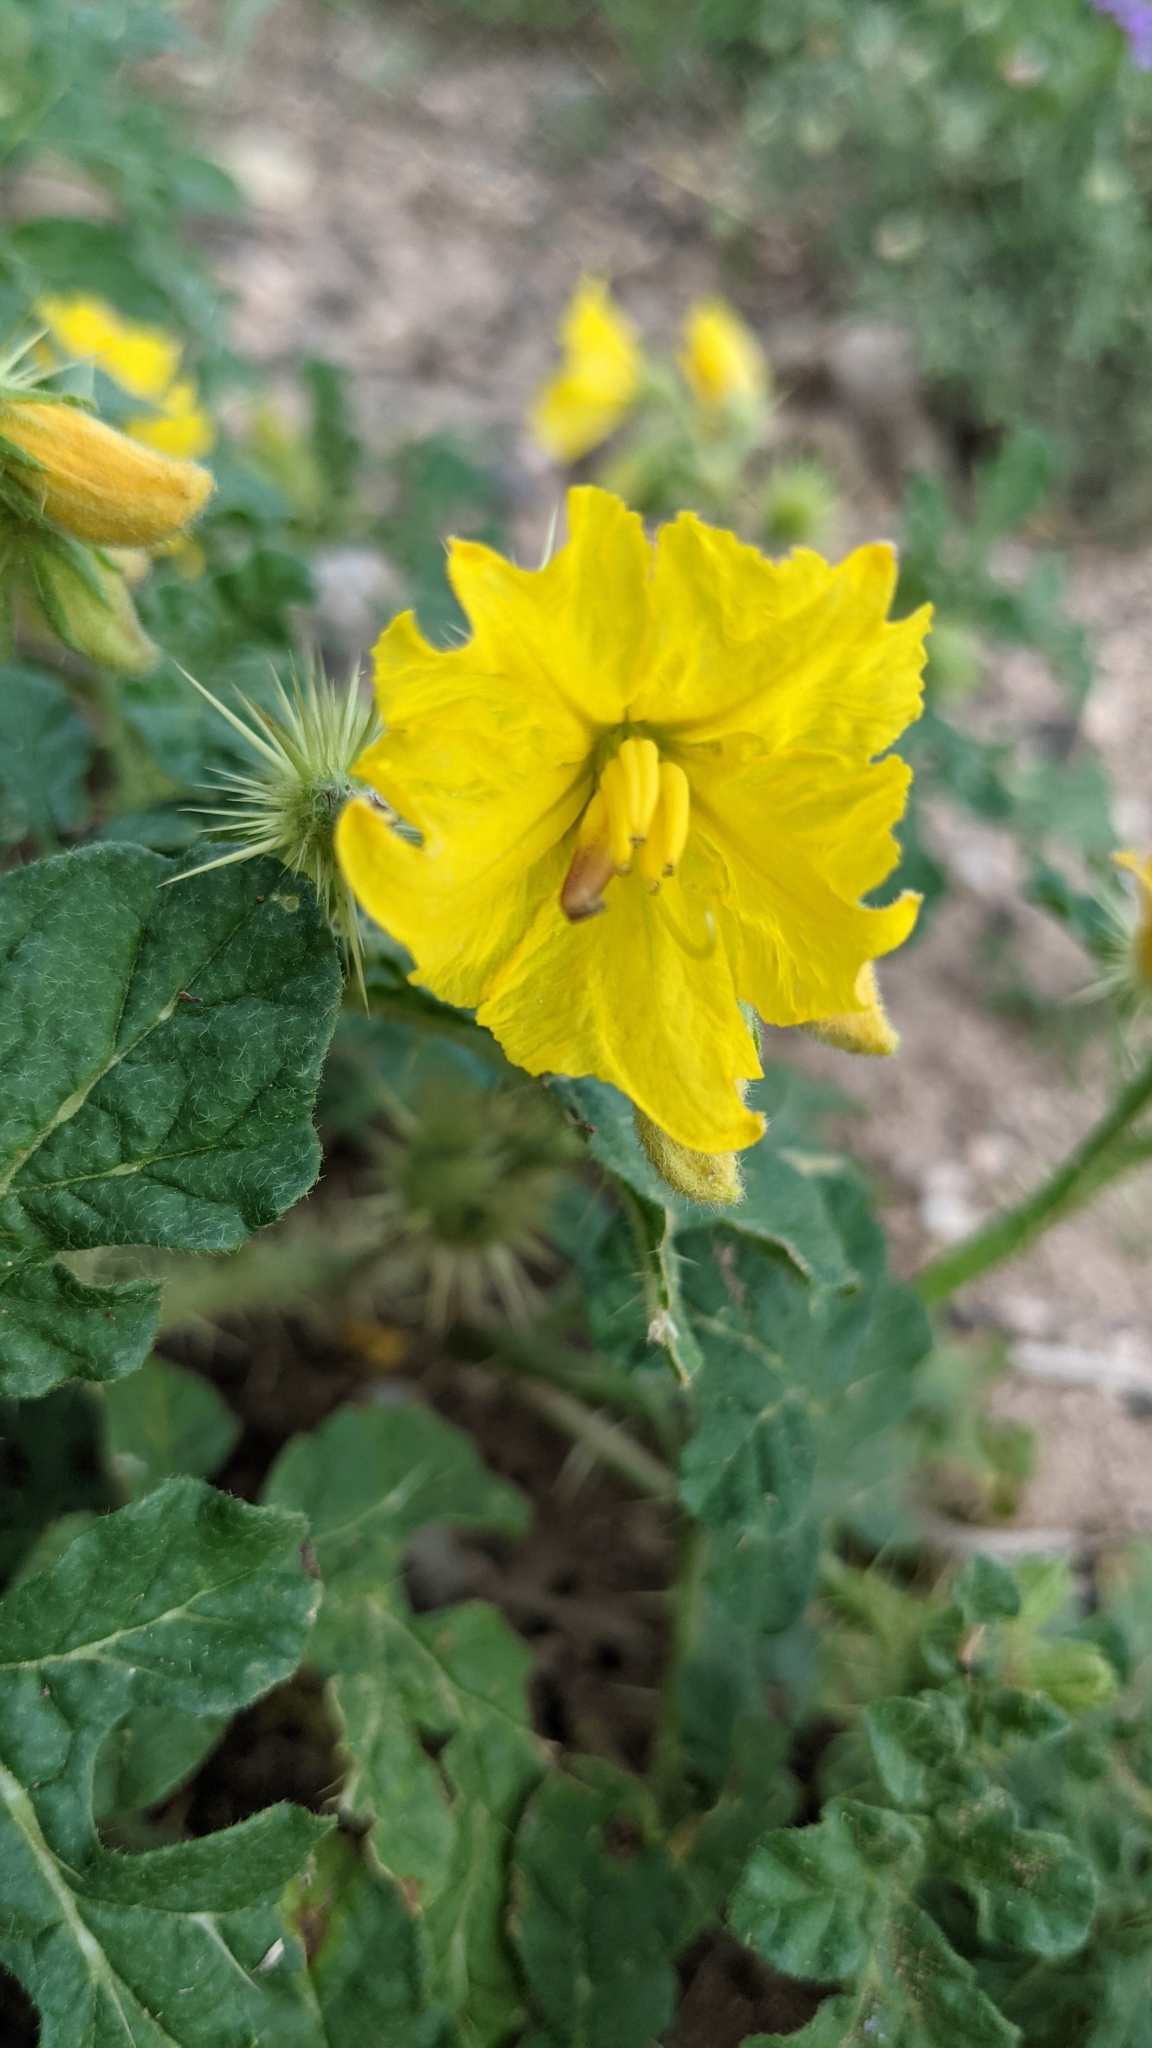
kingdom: Plantae
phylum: Tracheophyta
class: Magnoliopsida
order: Solanales
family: Solanaceae
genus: Solanum
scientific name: Solanum angustifolium
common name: Buffalobur nightshade
